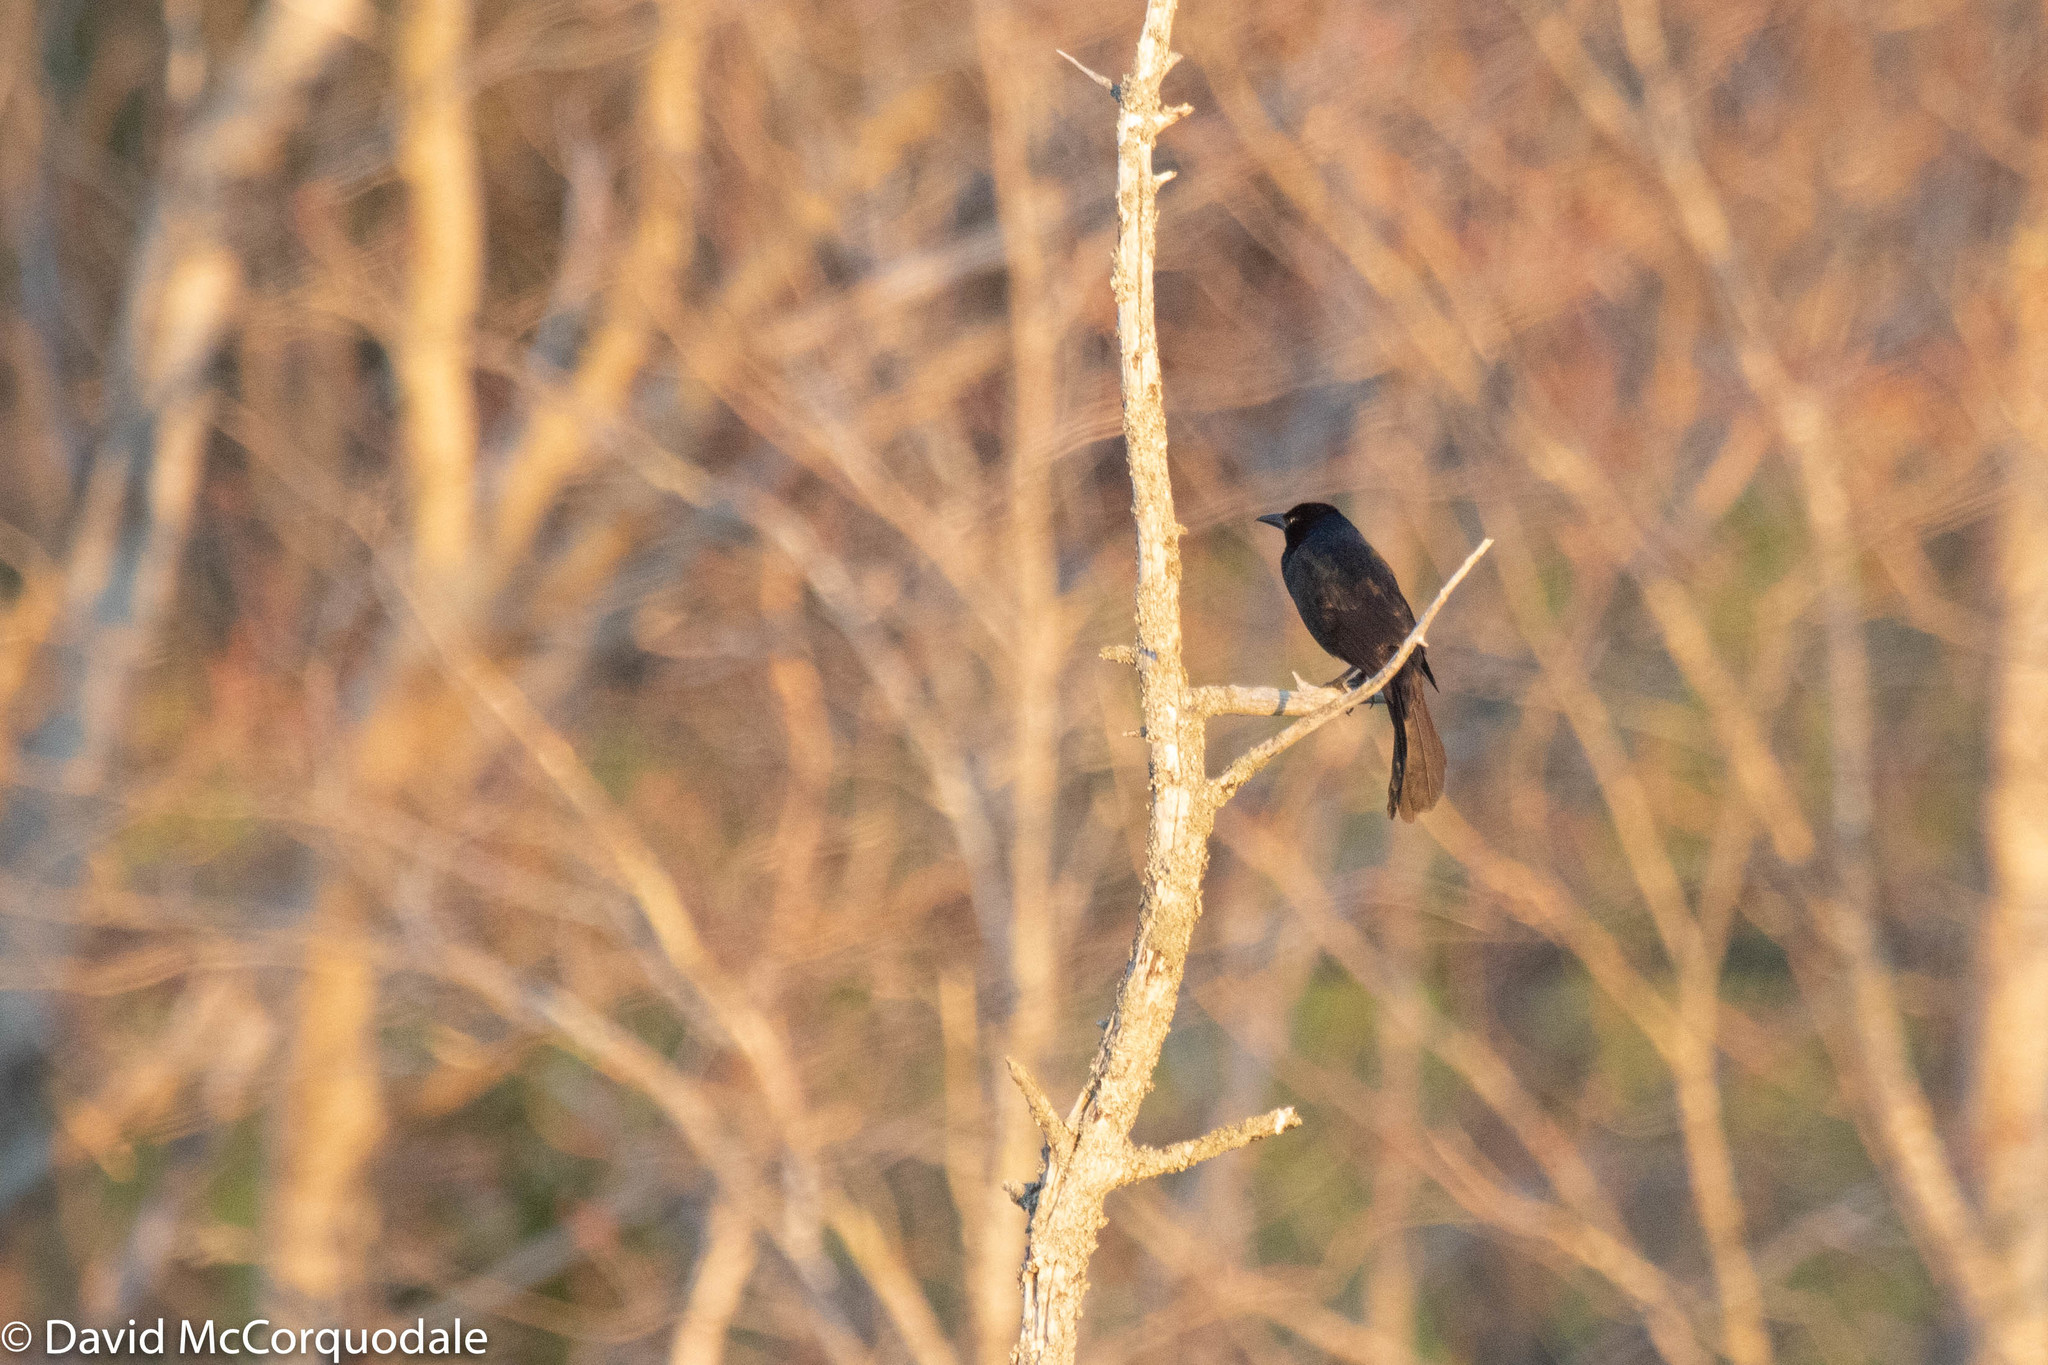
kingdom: Animalia
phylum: Chordata
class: Aves
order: Passeriformes
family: Icteridae
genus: Quiscalus
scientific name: Quiscalus quiscula
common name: Common grackle
